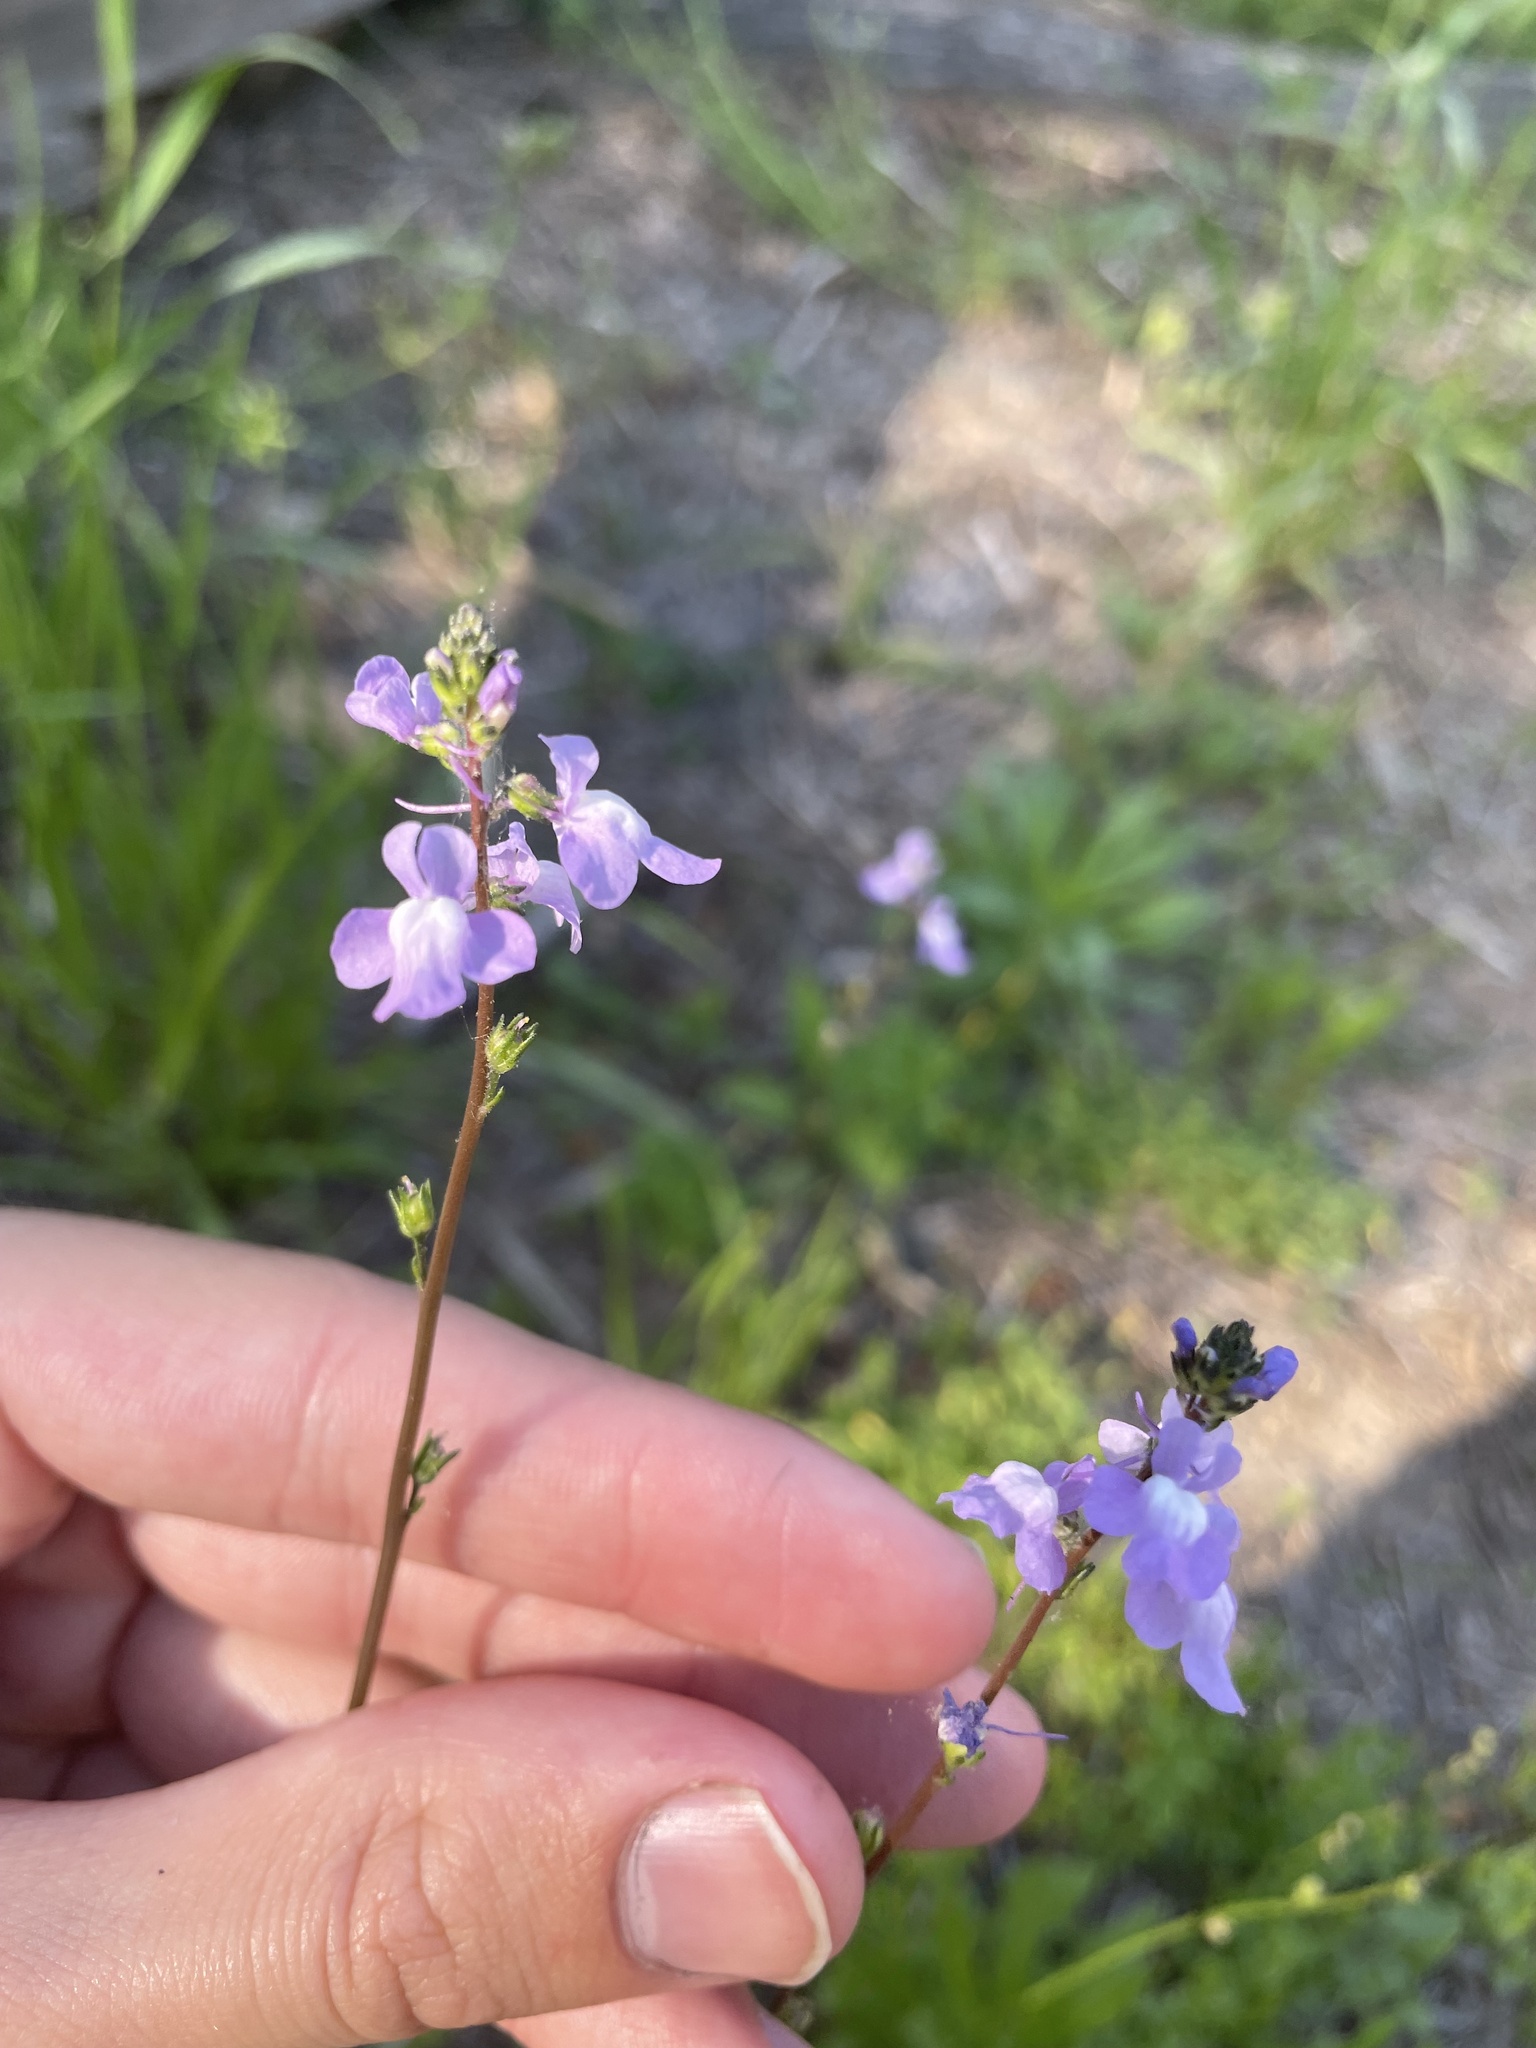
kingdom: Plantae
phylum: Tracheophyta
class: Magnoliopsida
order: Lamiales
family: Plantaginaceae
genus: Nuttallanthus
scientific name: Nuttallanthus canadensis
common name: Blue toadflax
